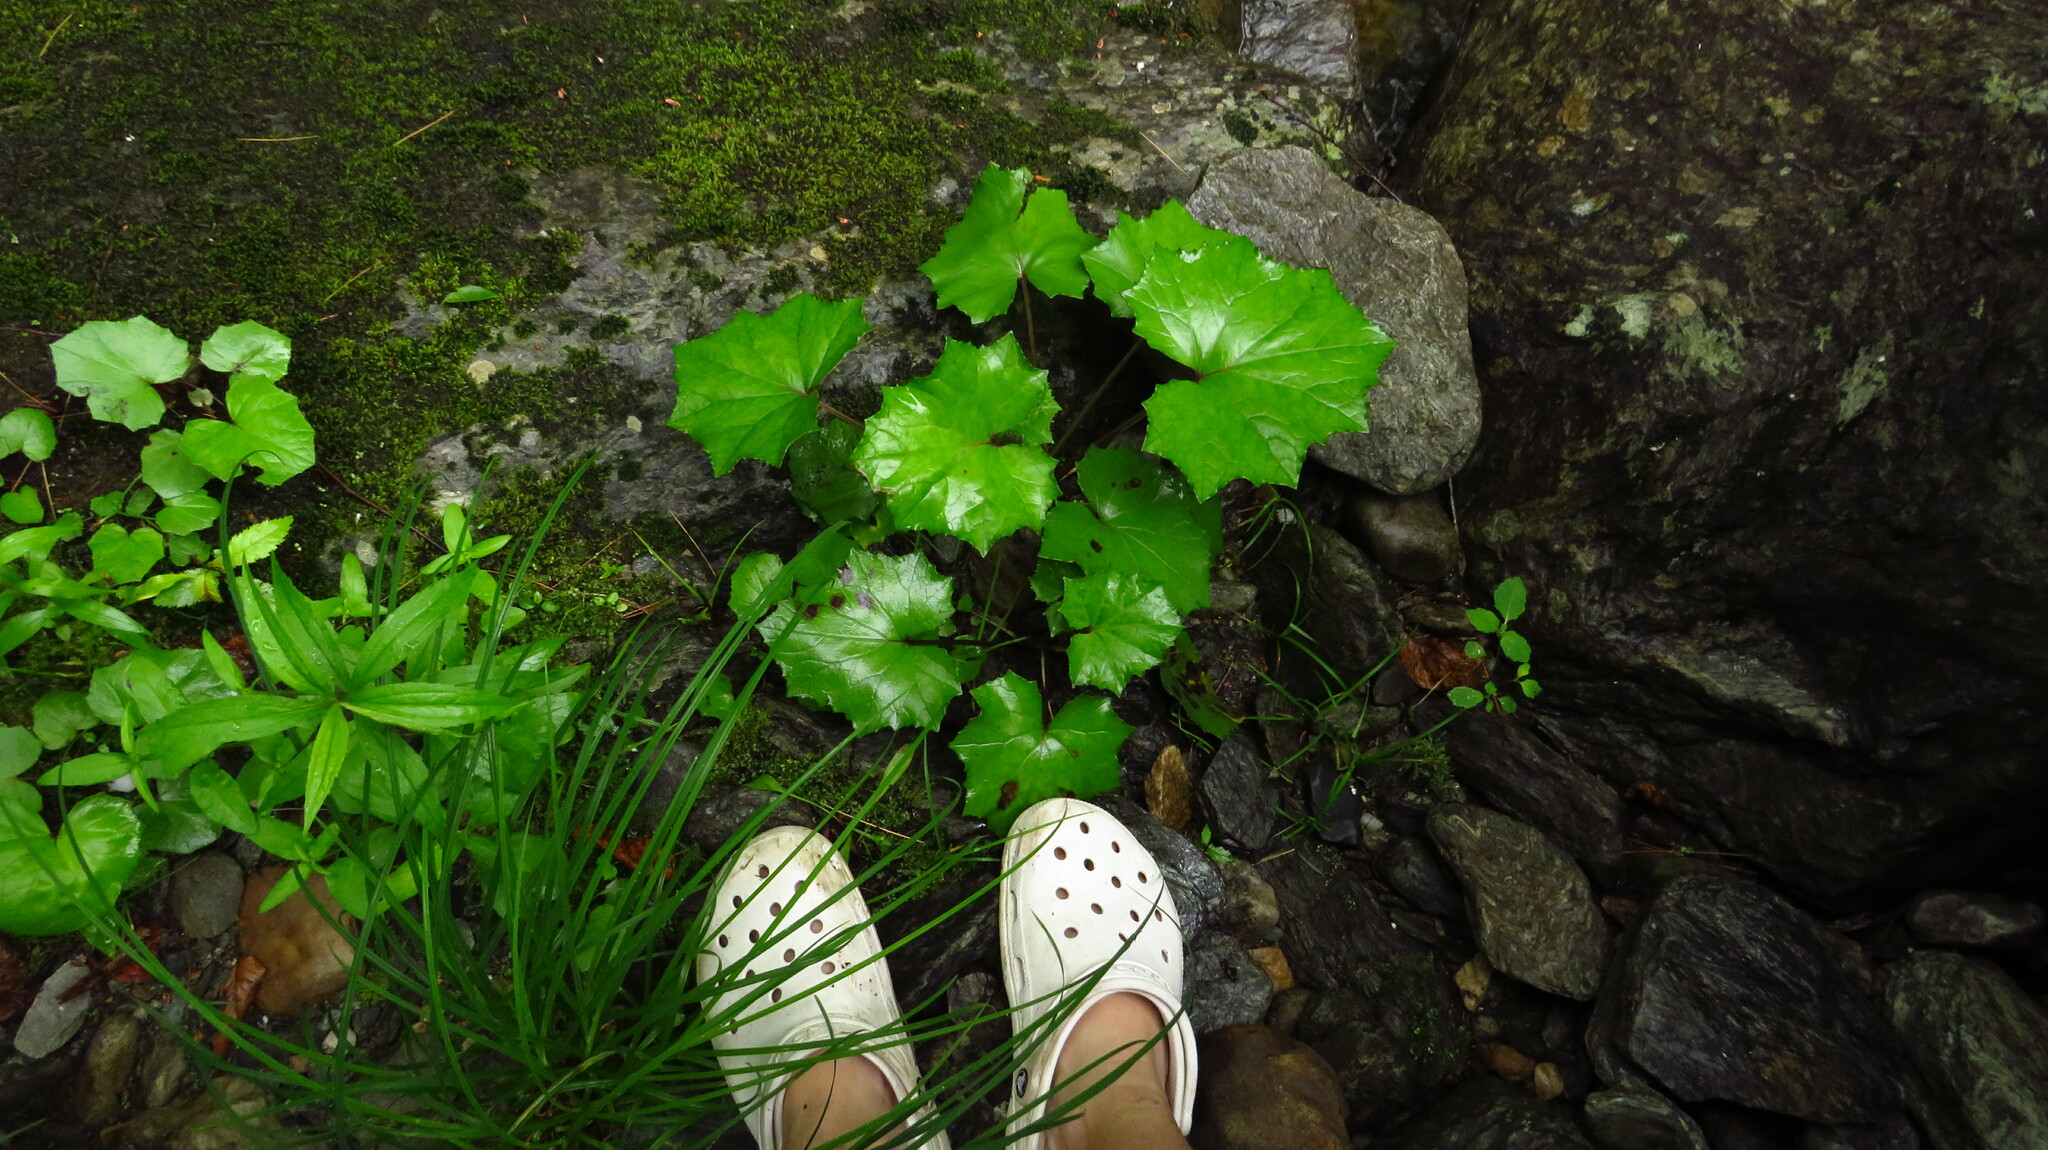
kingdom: Plantae
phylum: Tracheophyta
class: Magnoliopsida
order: Asterales
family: Asteraceae
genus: Tussilago
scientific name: Tussilago farfara
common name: Coltsfoot
